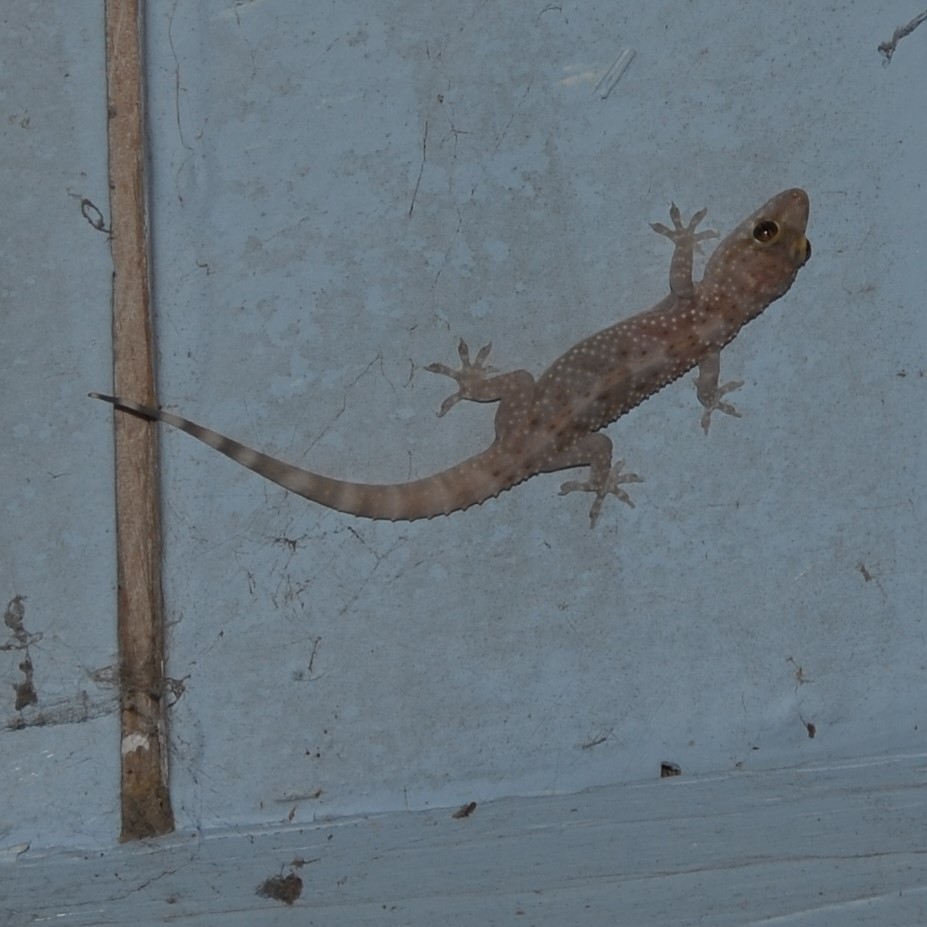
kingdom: Animalia
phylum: Chordata
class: Squamata
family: Gekkonidae
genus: Hemidactylus
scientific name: Hemidactylus turcicus
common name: Turkish gecko
